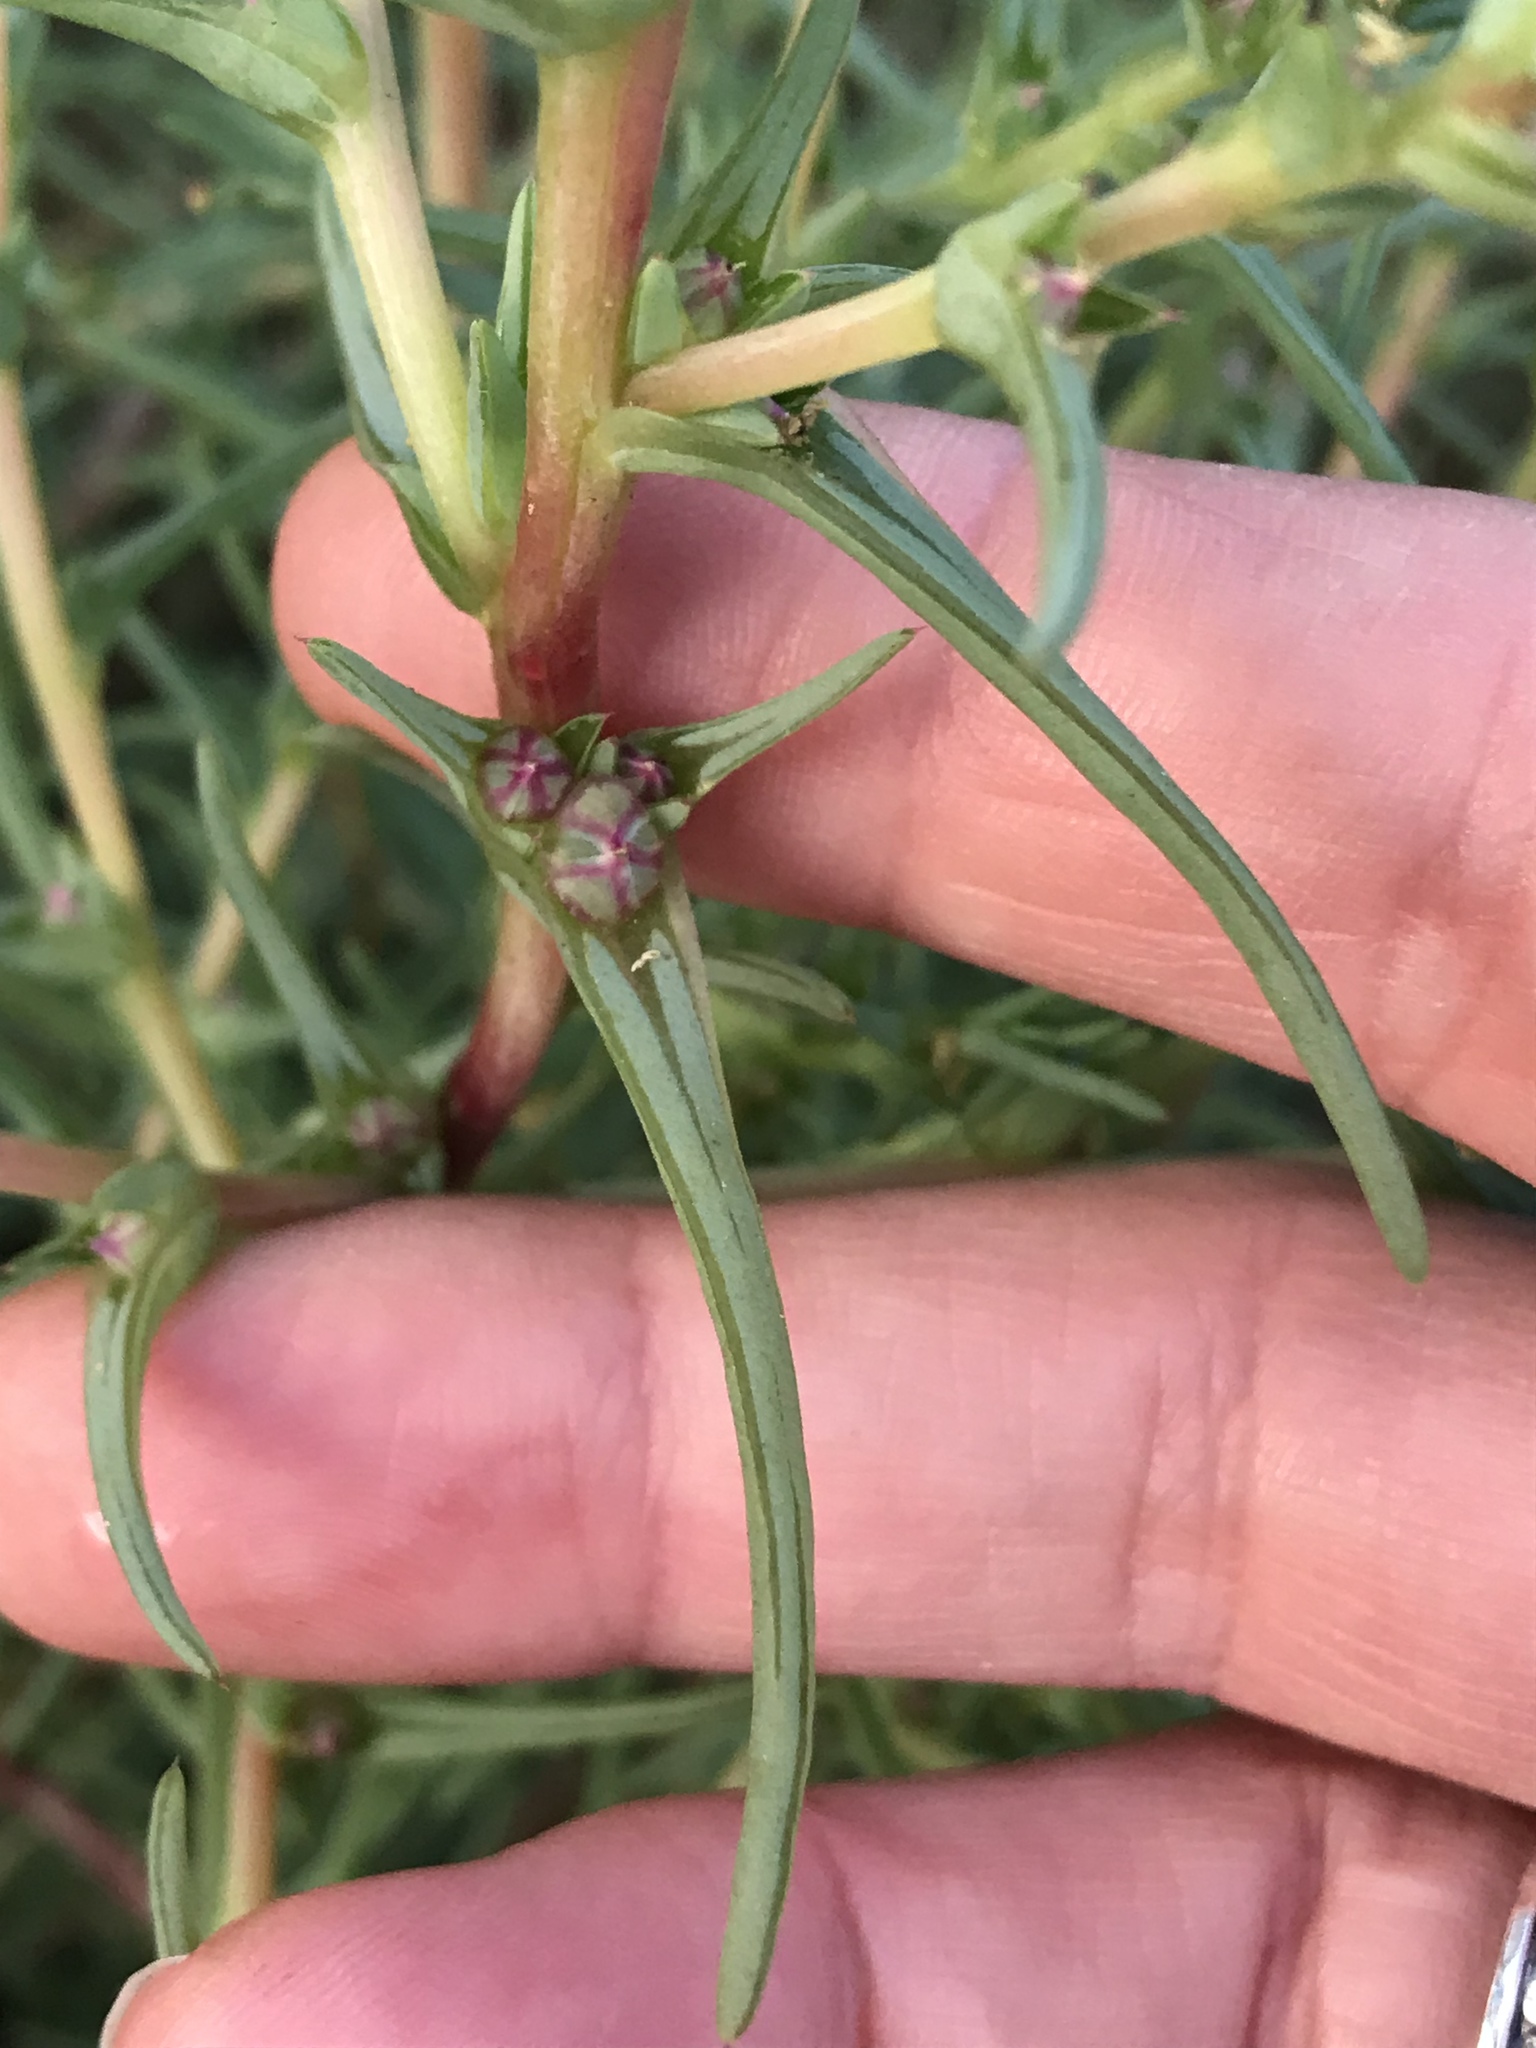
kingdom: Plantae
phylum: Tracheophyta
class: Magnoliopsida
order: Caryophyllales
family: Amaranthaceae
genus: Salsola
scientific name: Salsola soda
